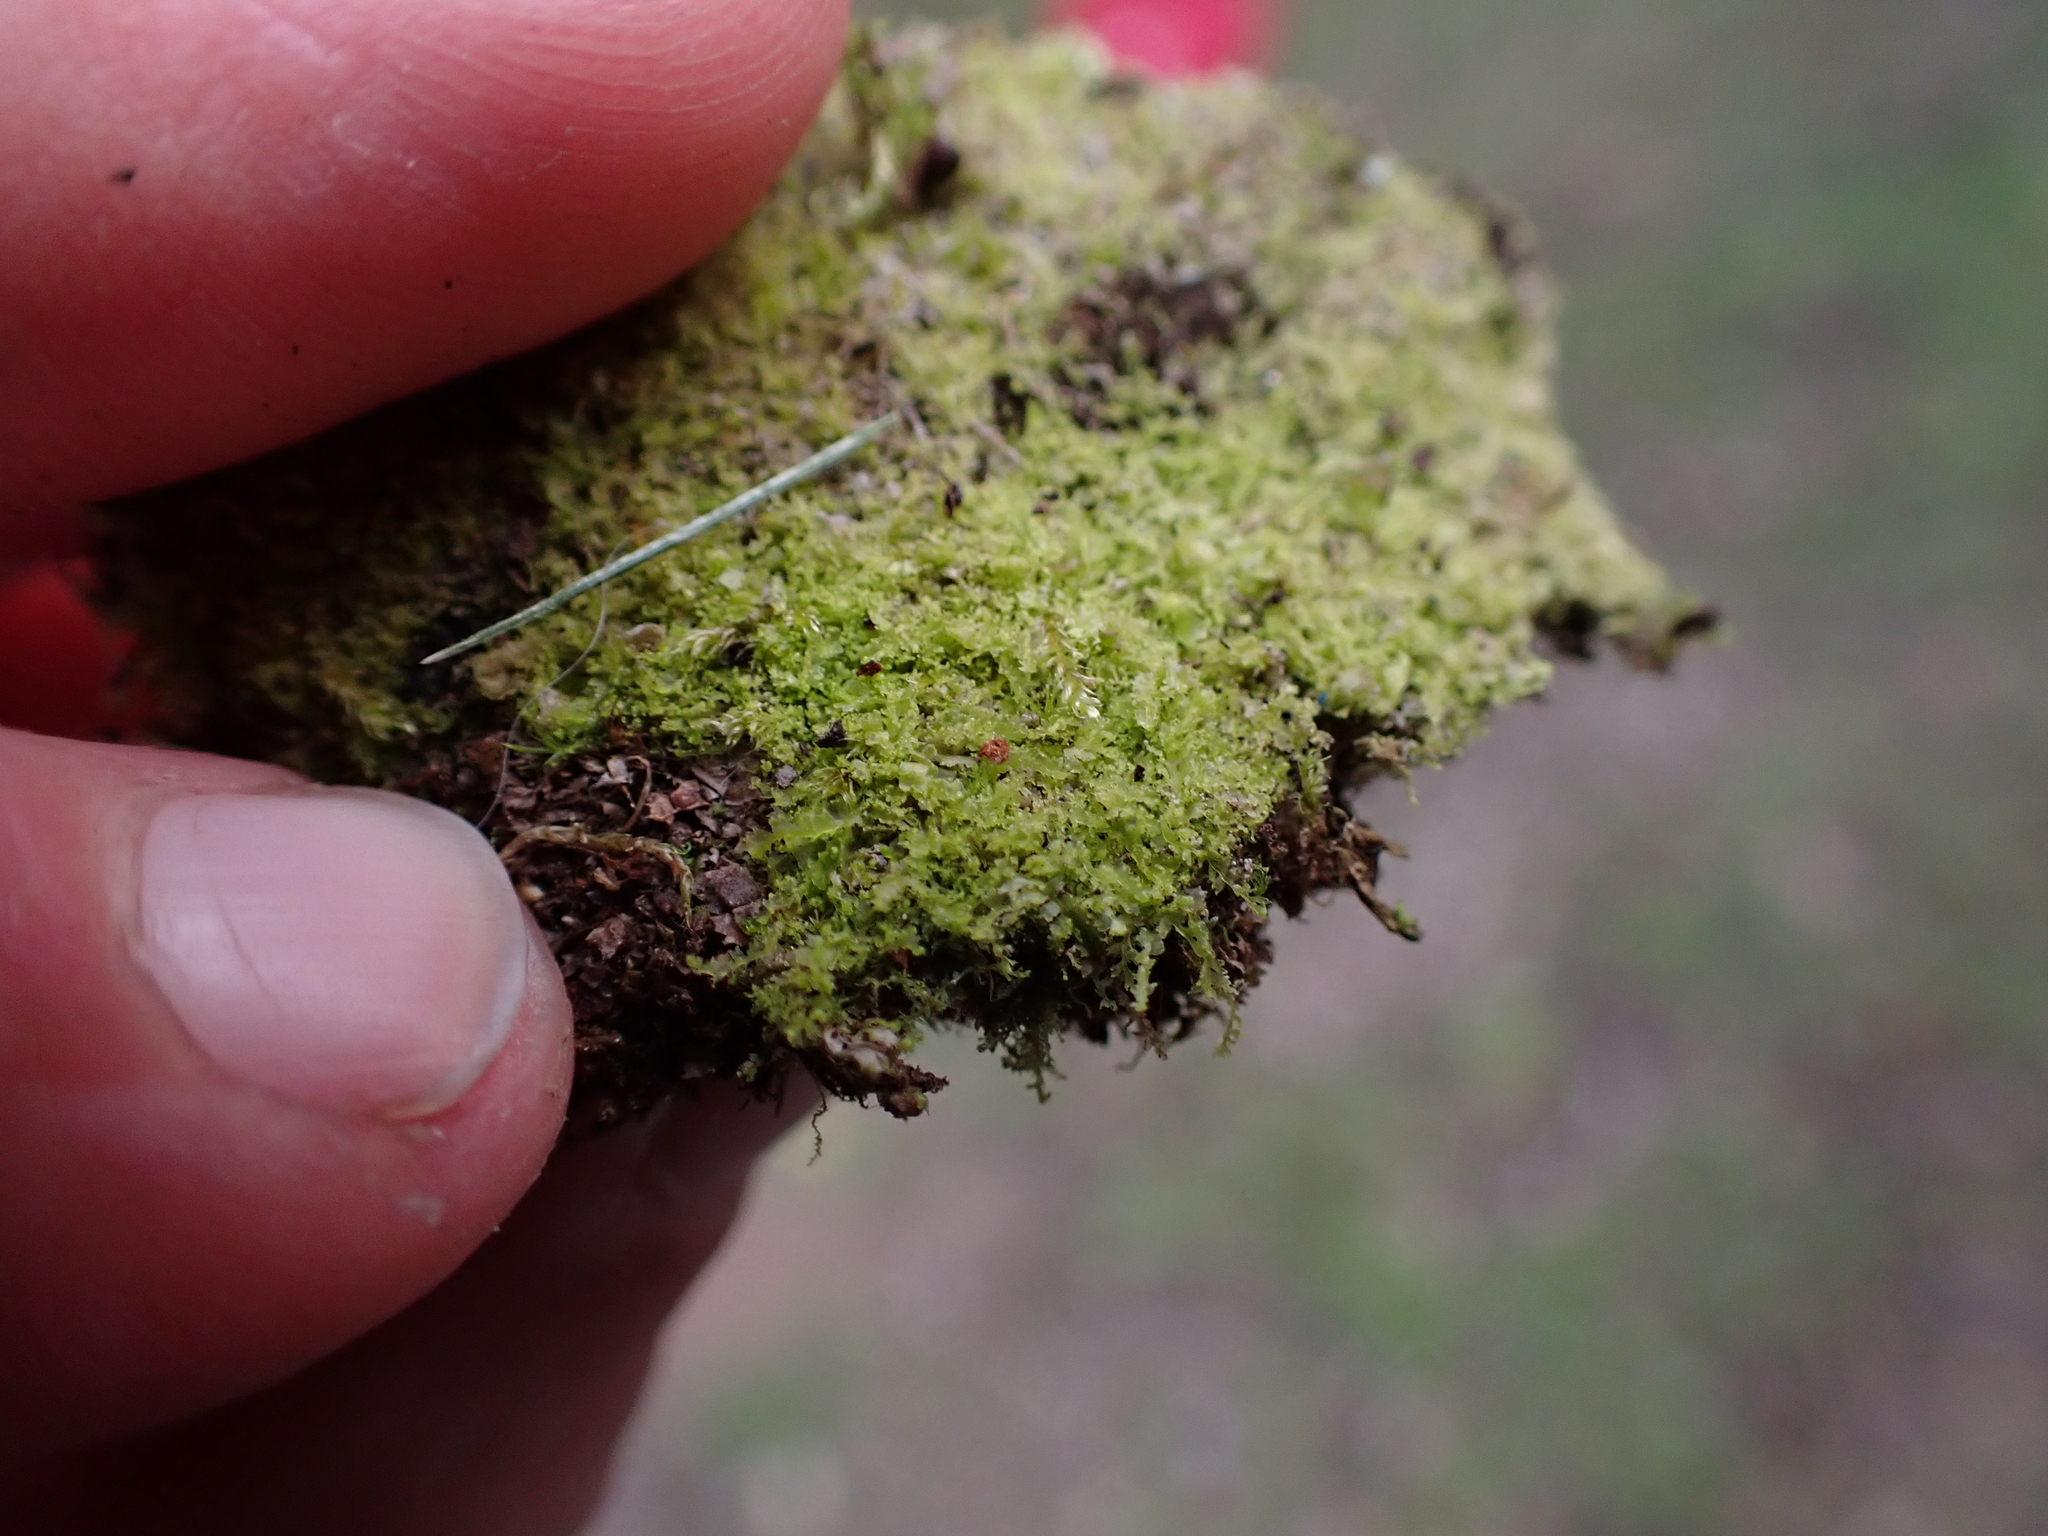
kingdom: Plantae
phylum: Marchantiophyta
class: Jungermanniopsida
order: Jungermanniales
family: Lophocoleaceae
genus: Lophocolea
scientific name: Lophocolea minor
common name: Lesser crestwort
